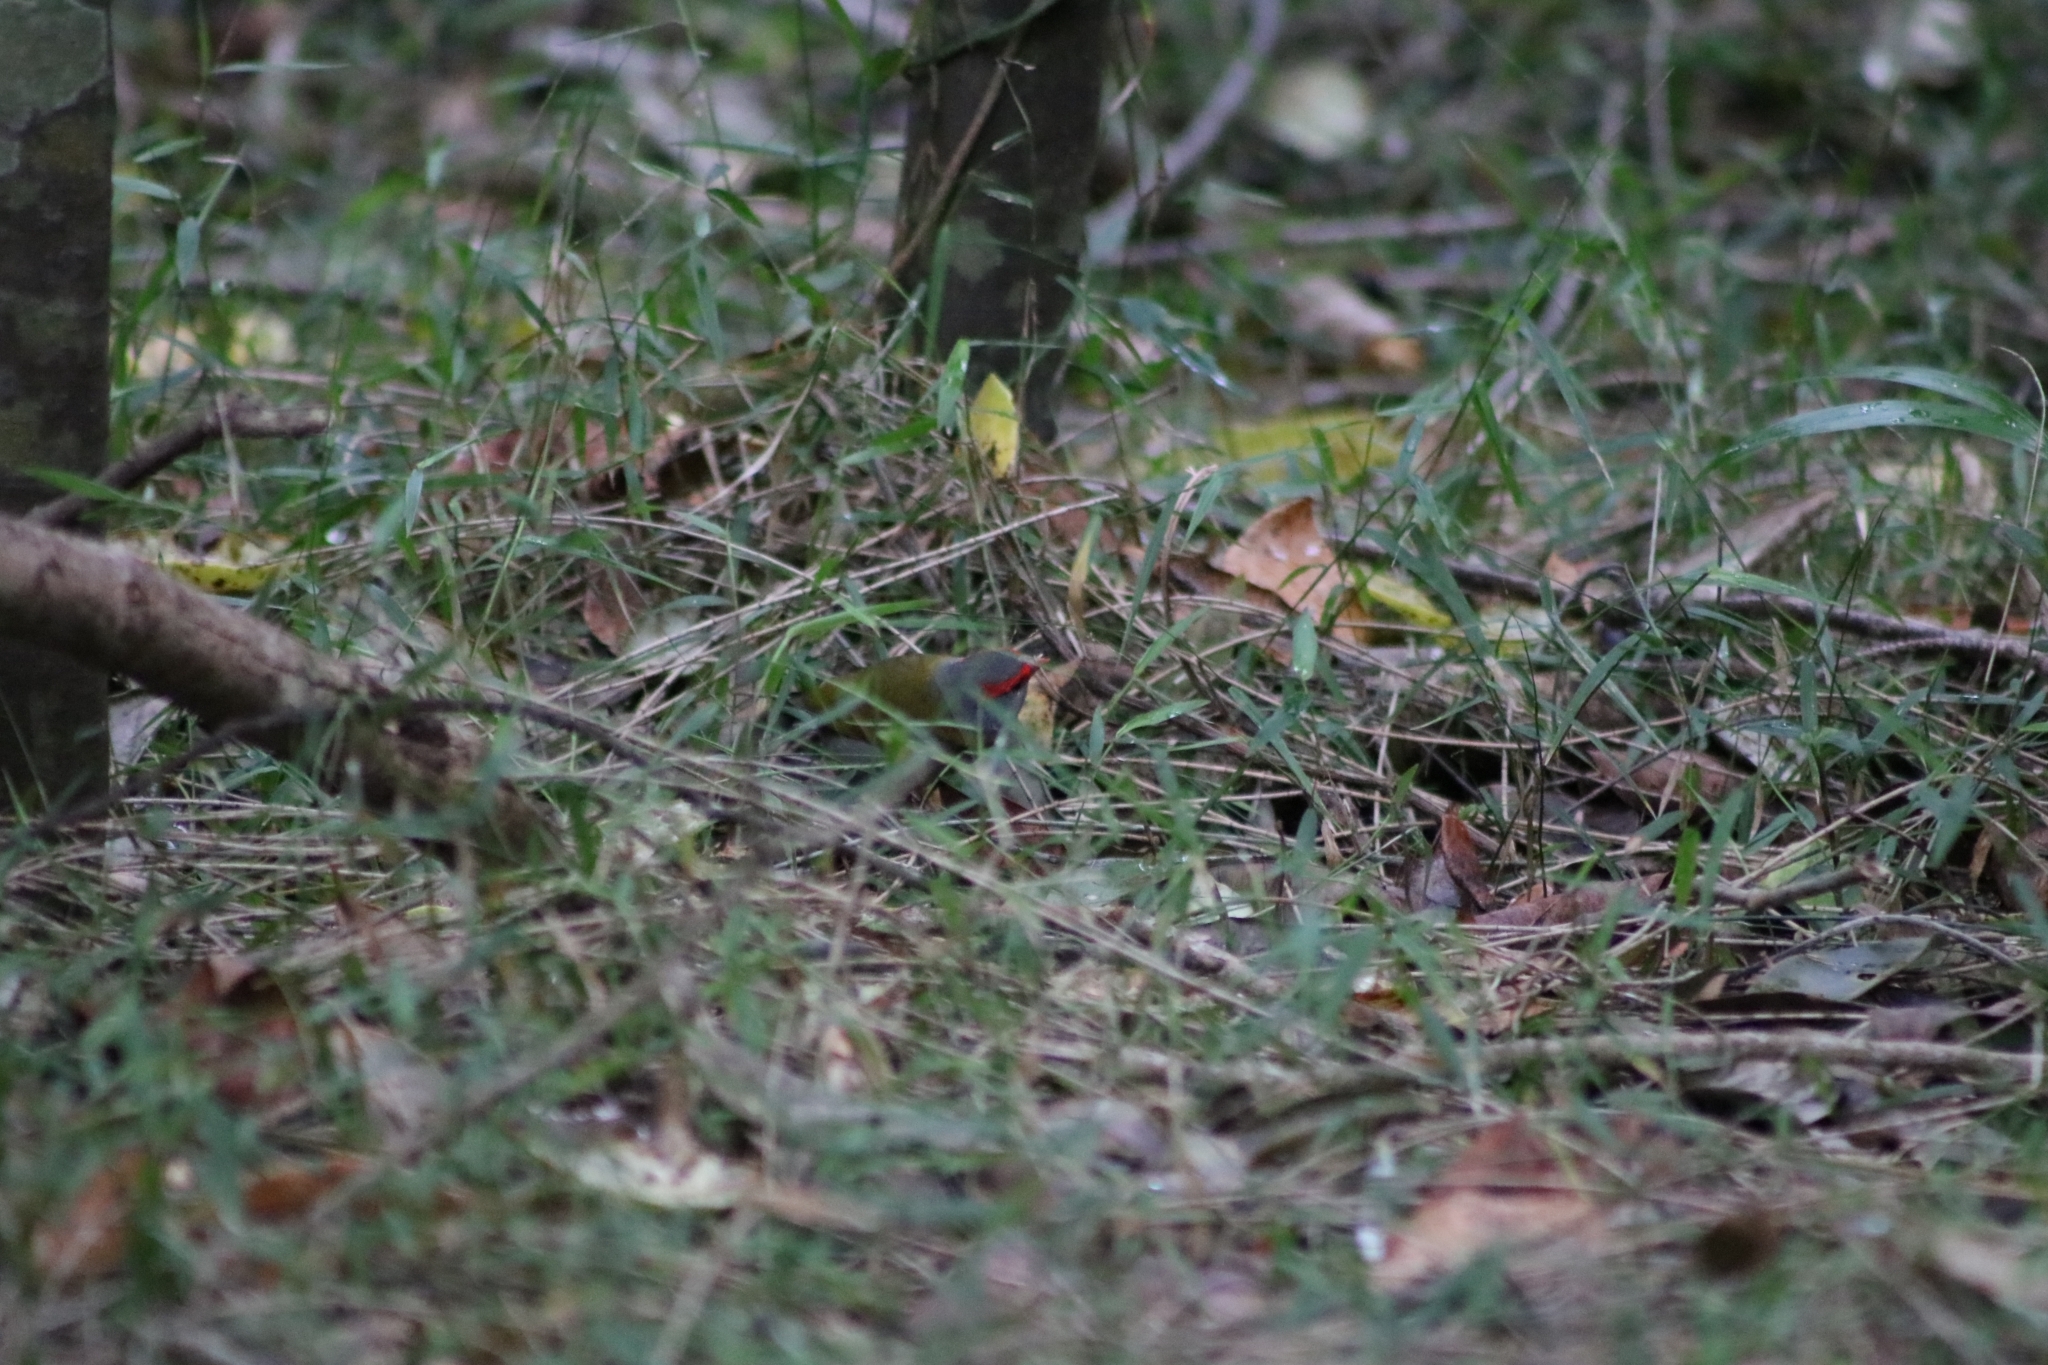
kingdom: Animalia
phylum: Chordata
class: Aves
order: Passeriformes
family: Estrildidae
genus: Neochmia
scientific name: Neochmia temporalis
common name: Red-browed finch
